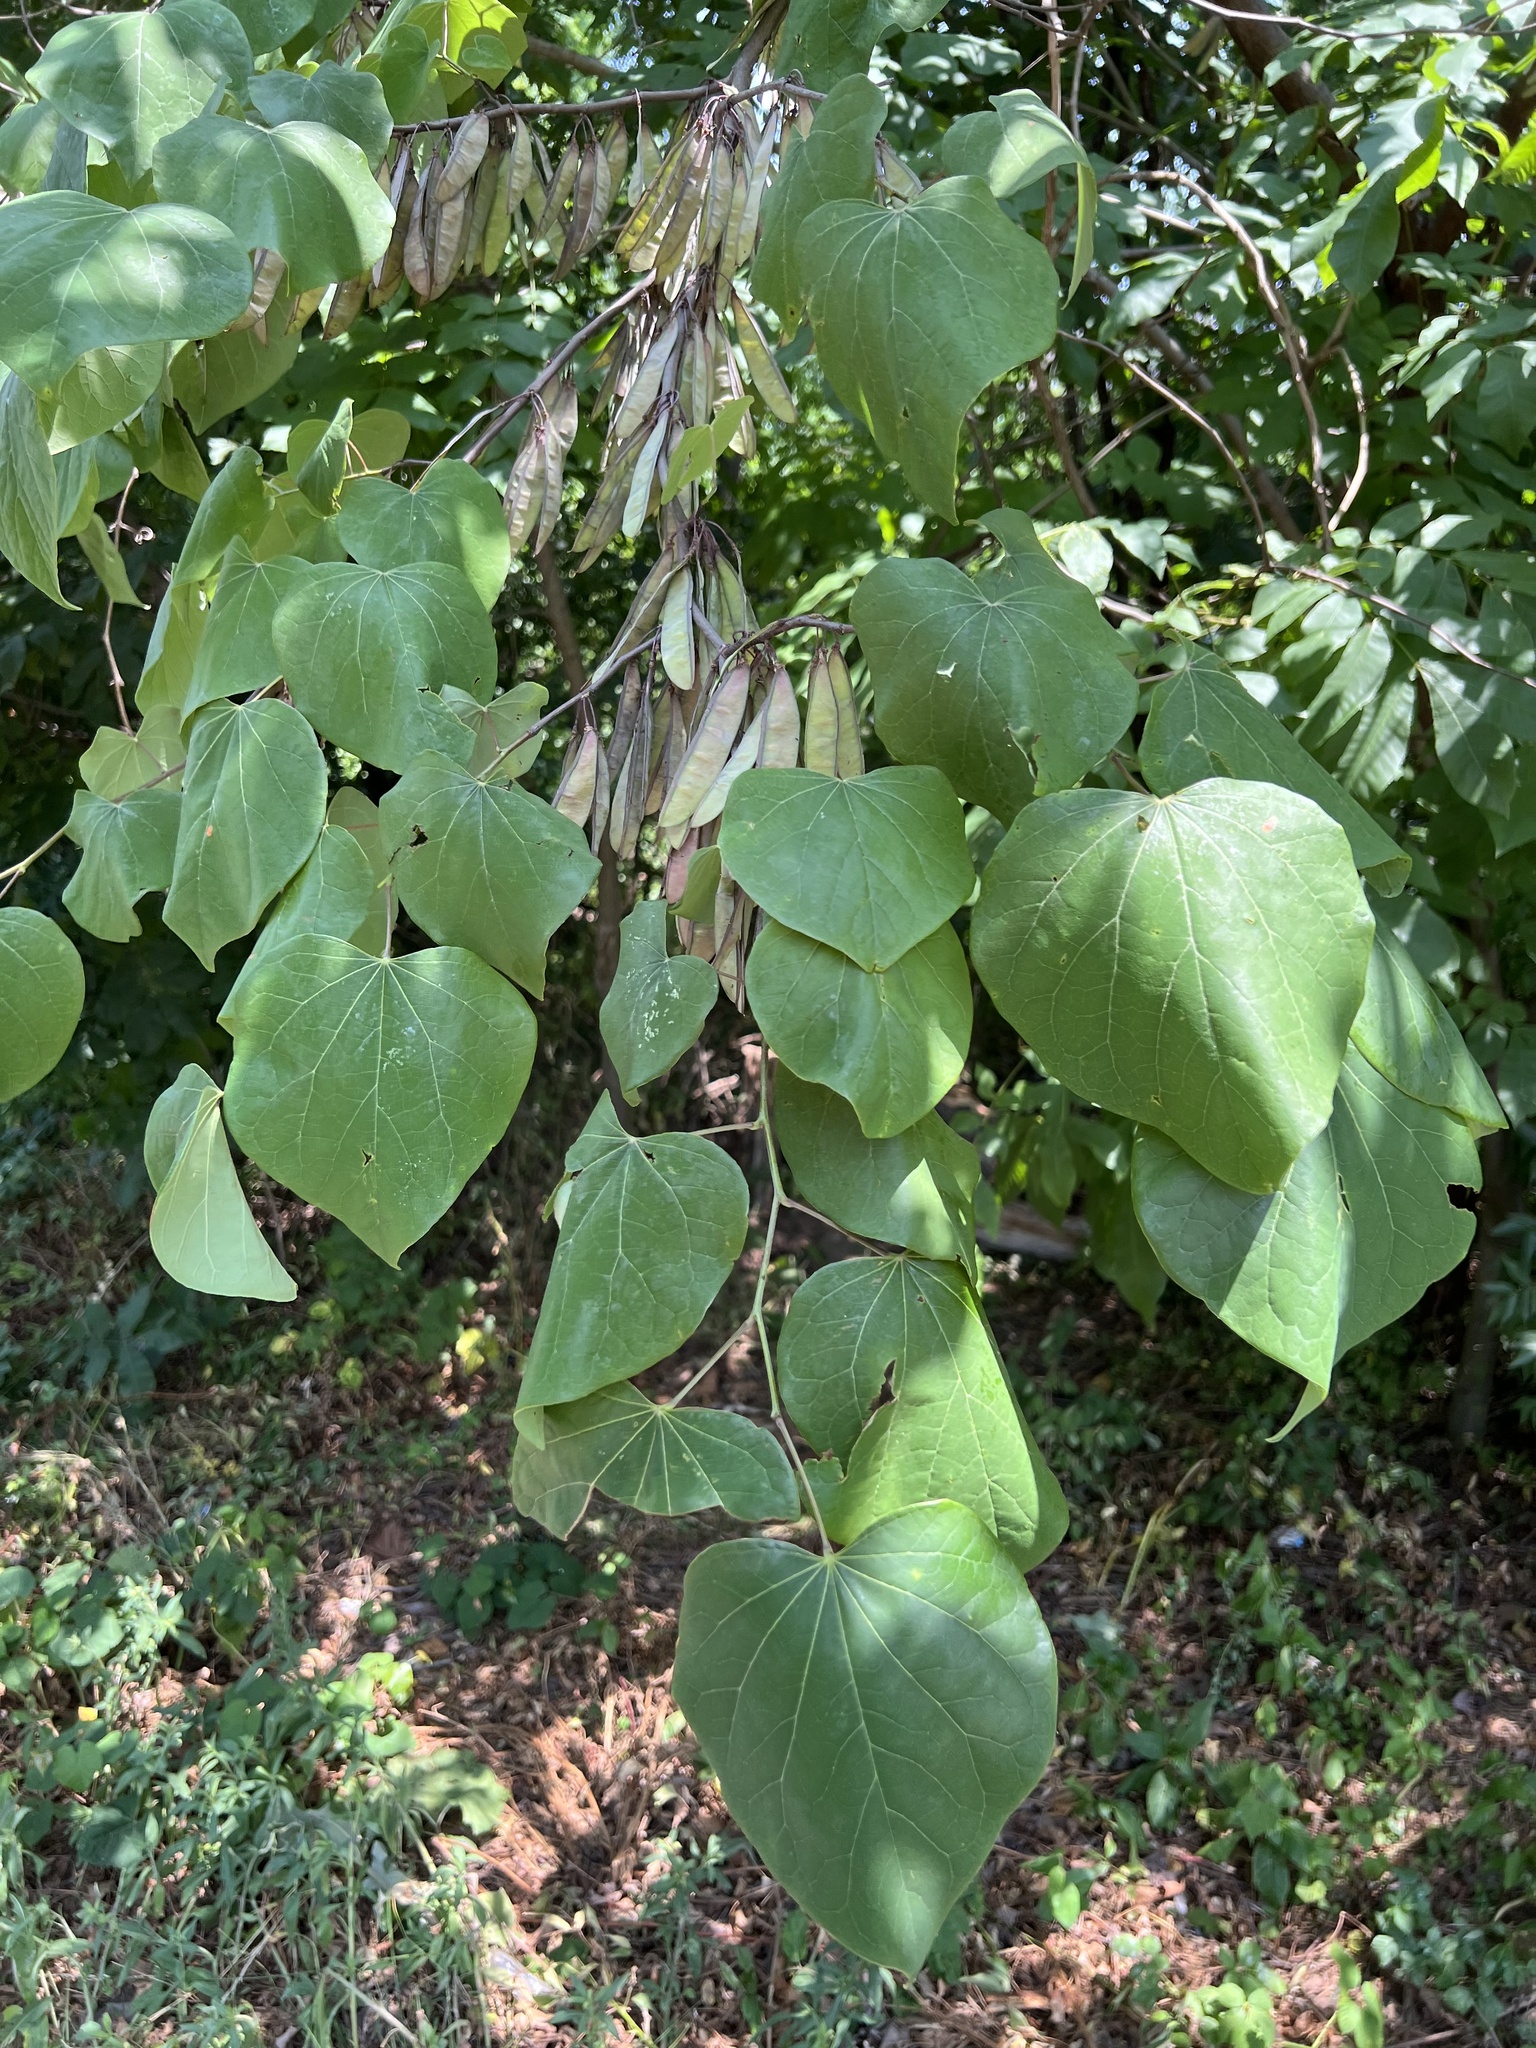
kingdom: Plantae
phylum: Tracheophyta
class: Magnoliopsida
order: Fabales
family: Fabaceae
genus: Cercis
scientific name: Cercis canadensis
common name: Eastern redbud
